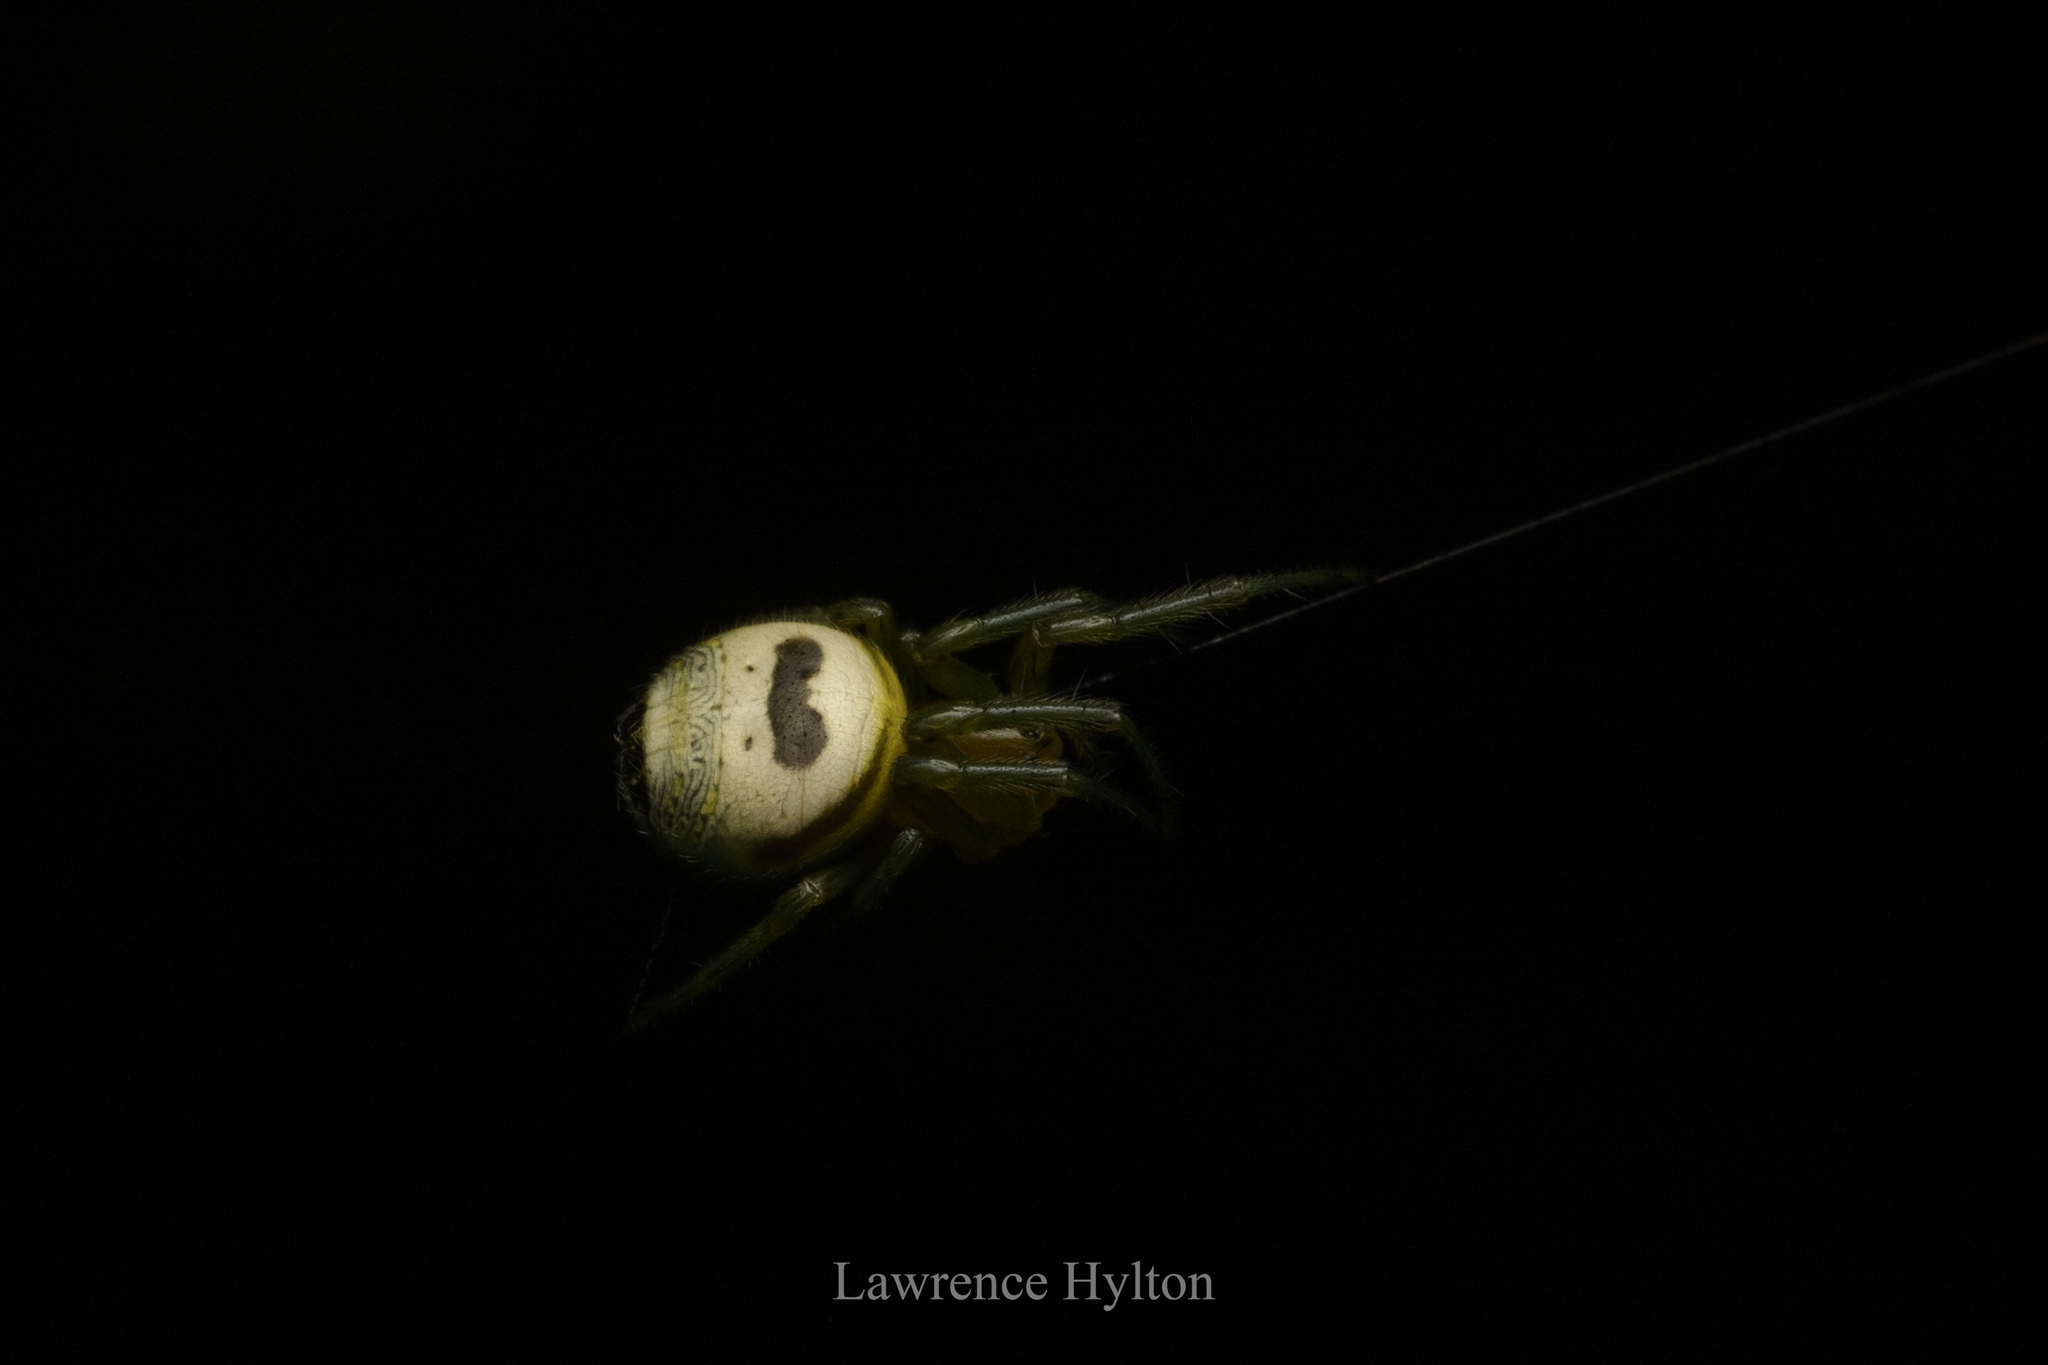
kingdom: Animalia
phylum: Arthropoda
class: Arachnida
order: Araneae
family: Araneidae
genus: Bijoaraneus
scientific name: Bijoaraneus mitificus
